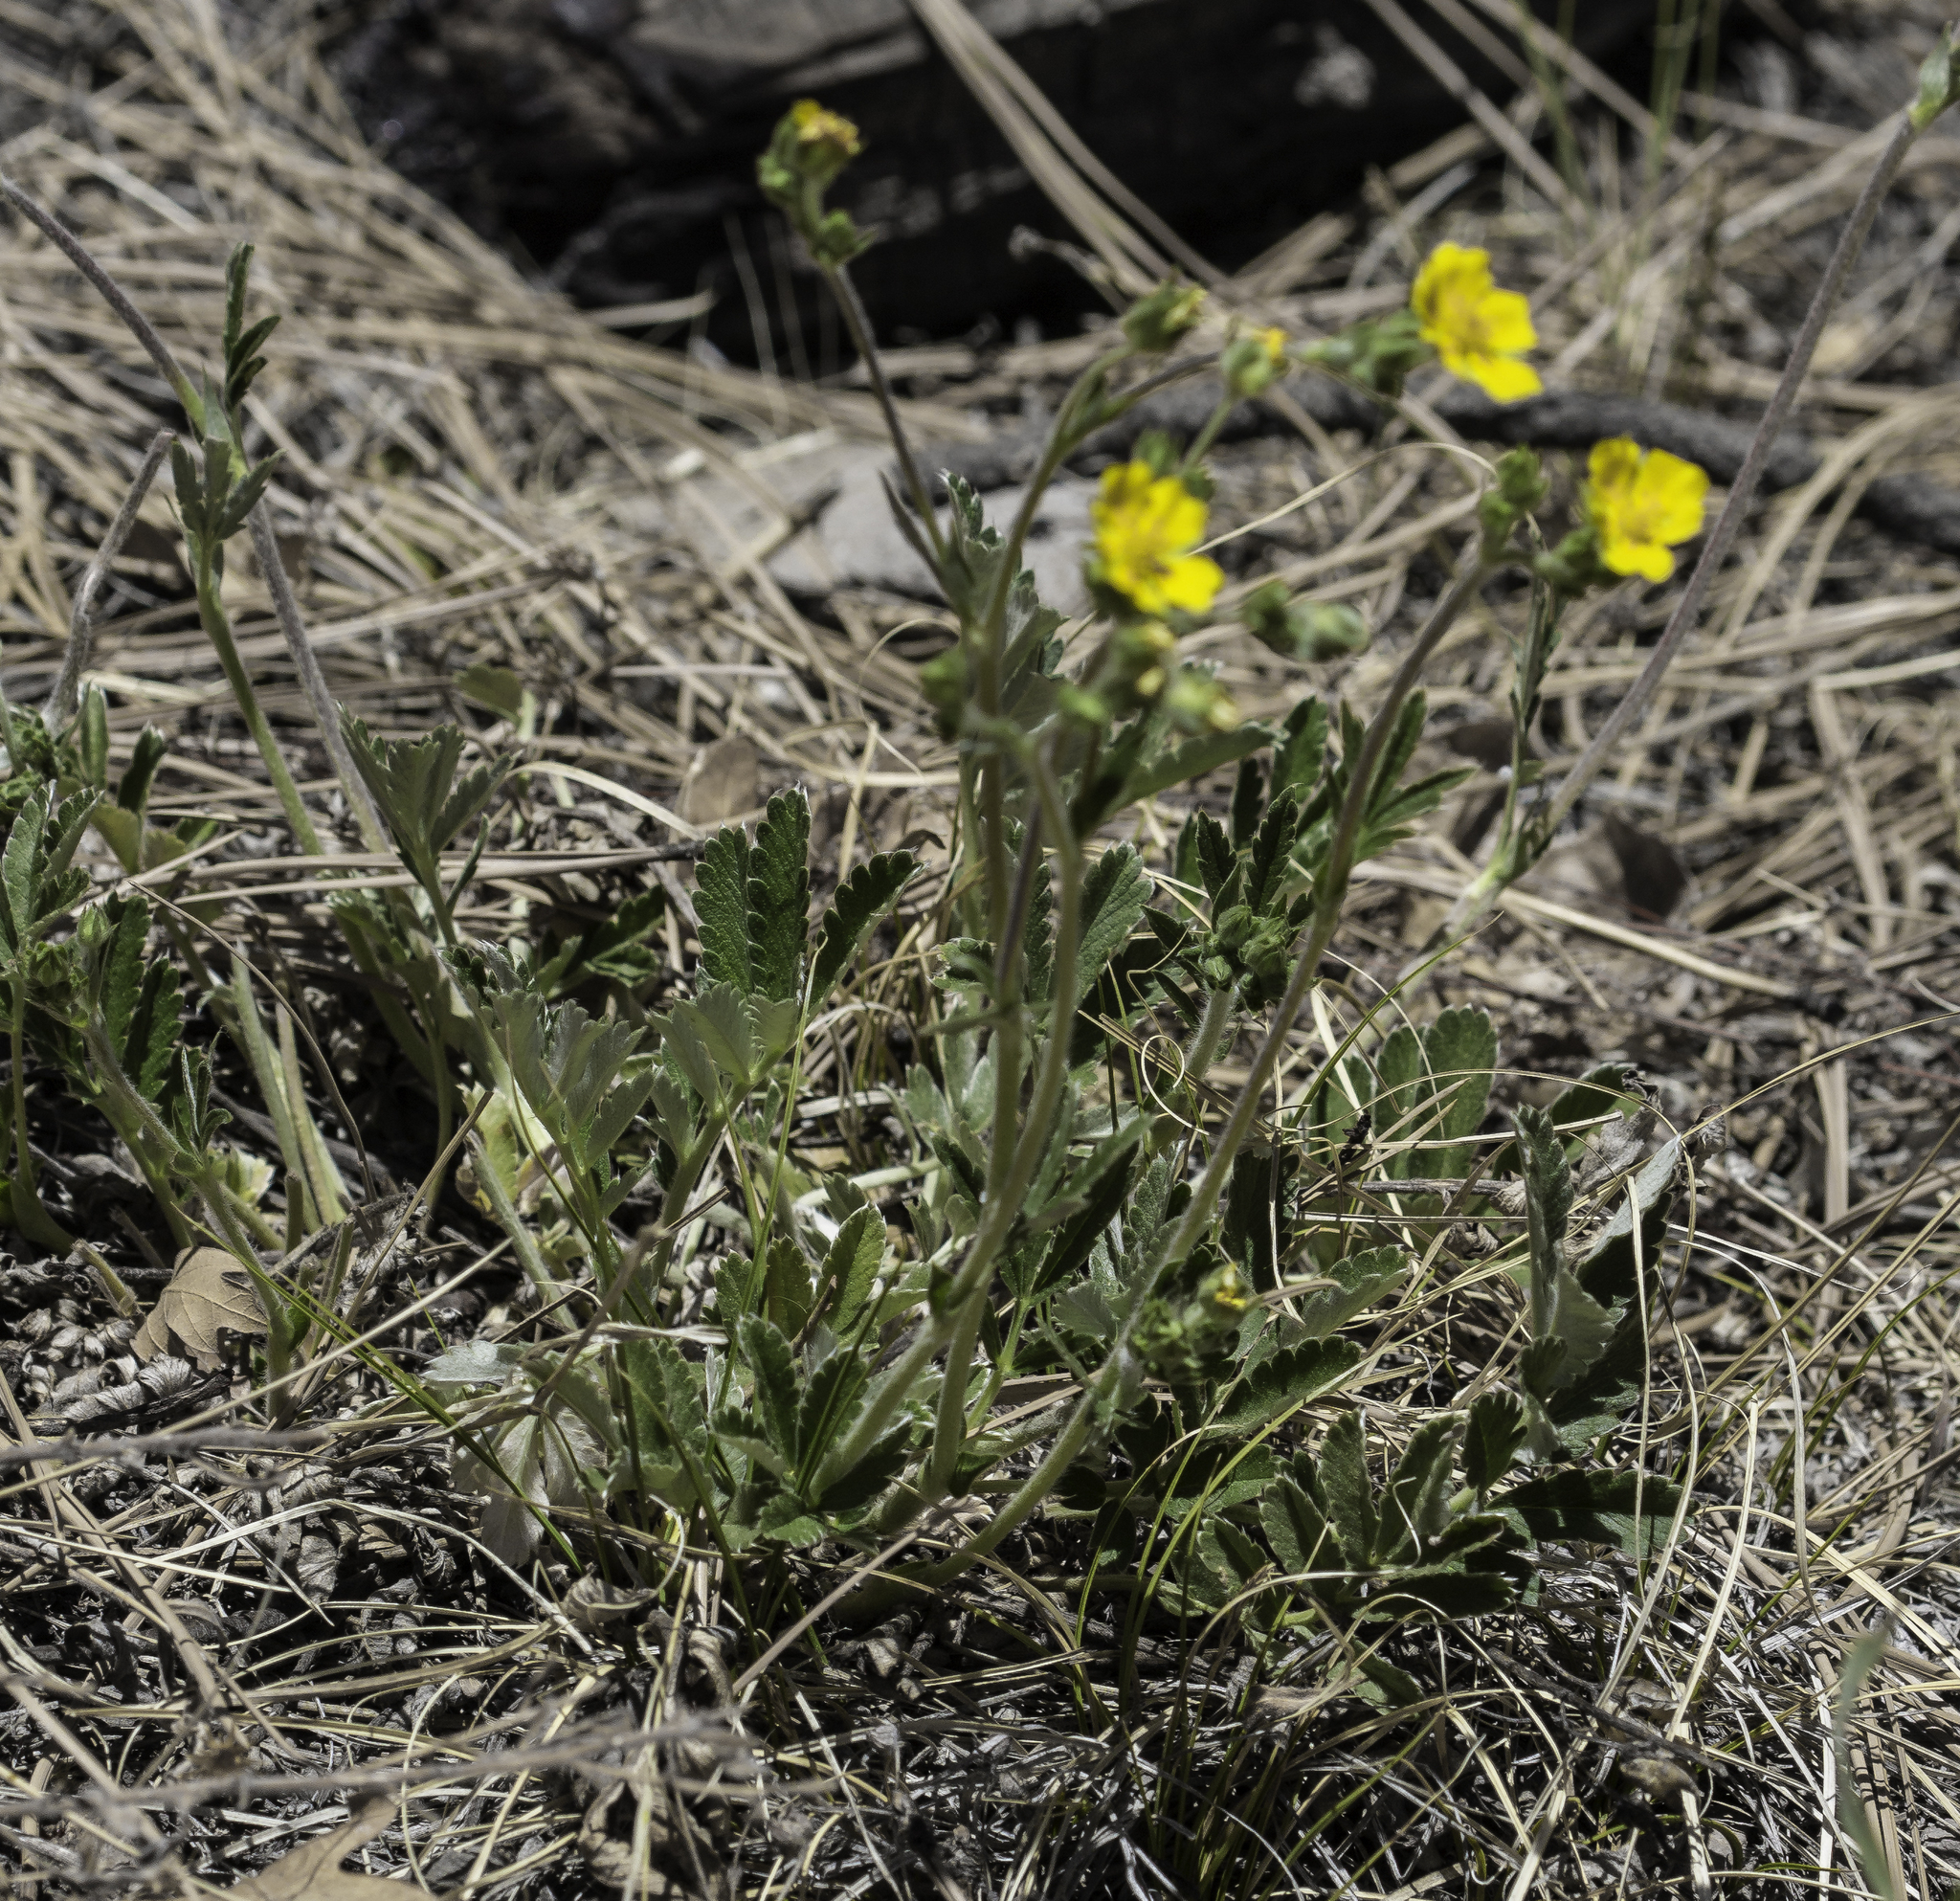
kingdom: Plantae
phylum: Tracheophyta
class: Magnoliopsida
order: Rosales
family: Rosaceae
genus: Potentilla
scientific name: Potentilla hippiana
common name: Woolly cinquefoil
